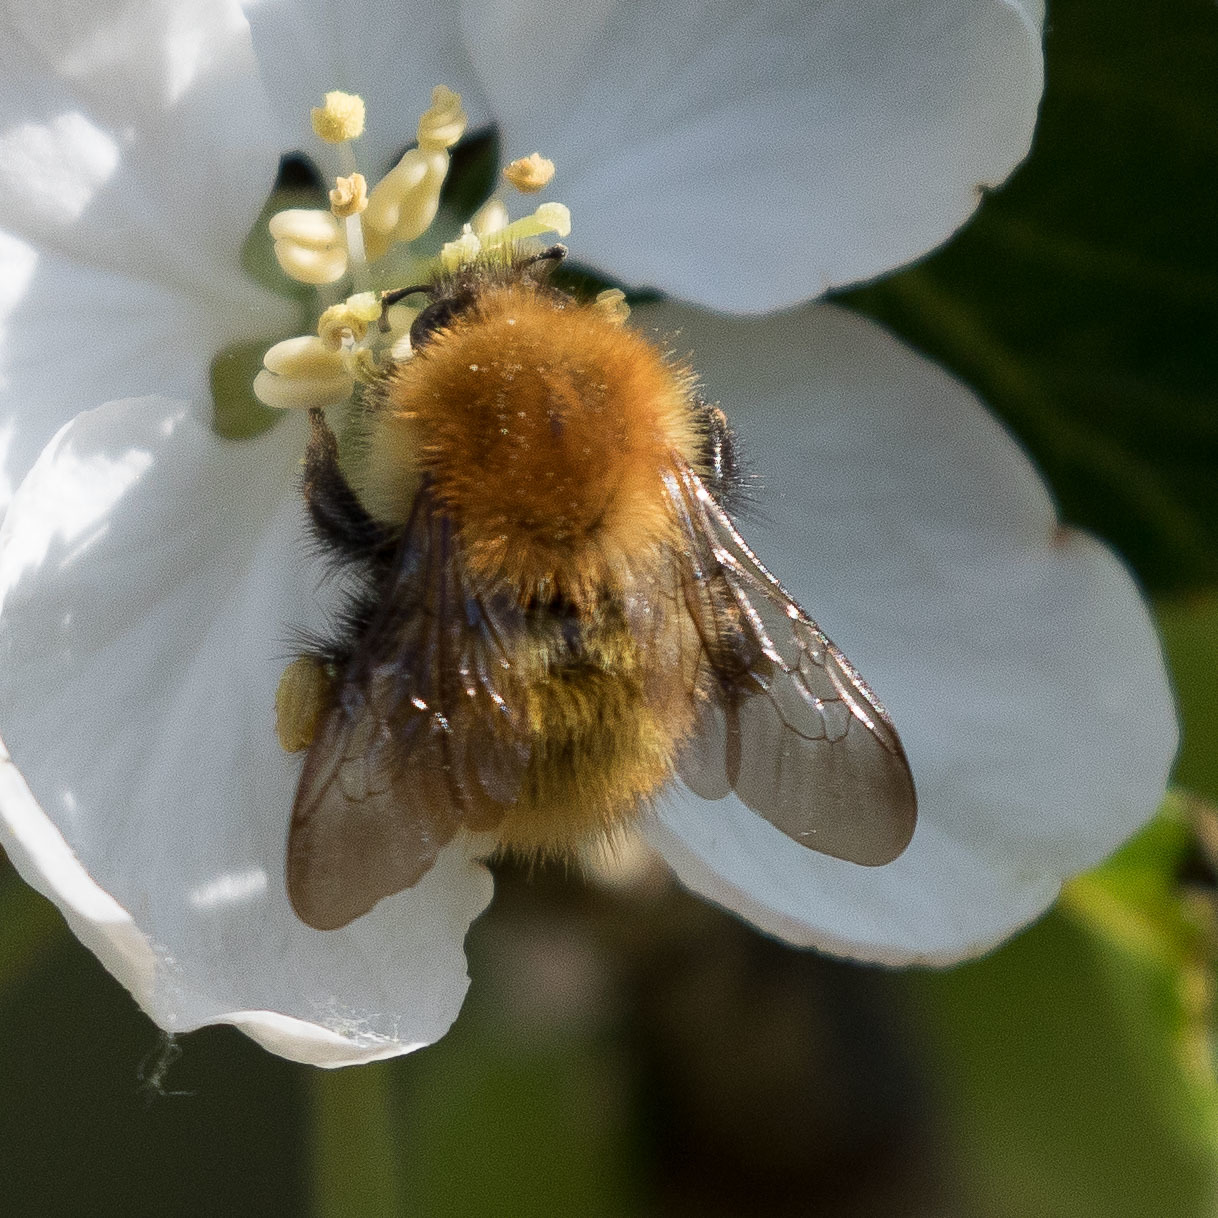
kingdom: Animalia
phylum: Arthropoda
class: Insecta
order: Hymenoptera
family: Apidae
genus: Bombus
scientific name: Bombus pascuorum
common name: Common carder bee
